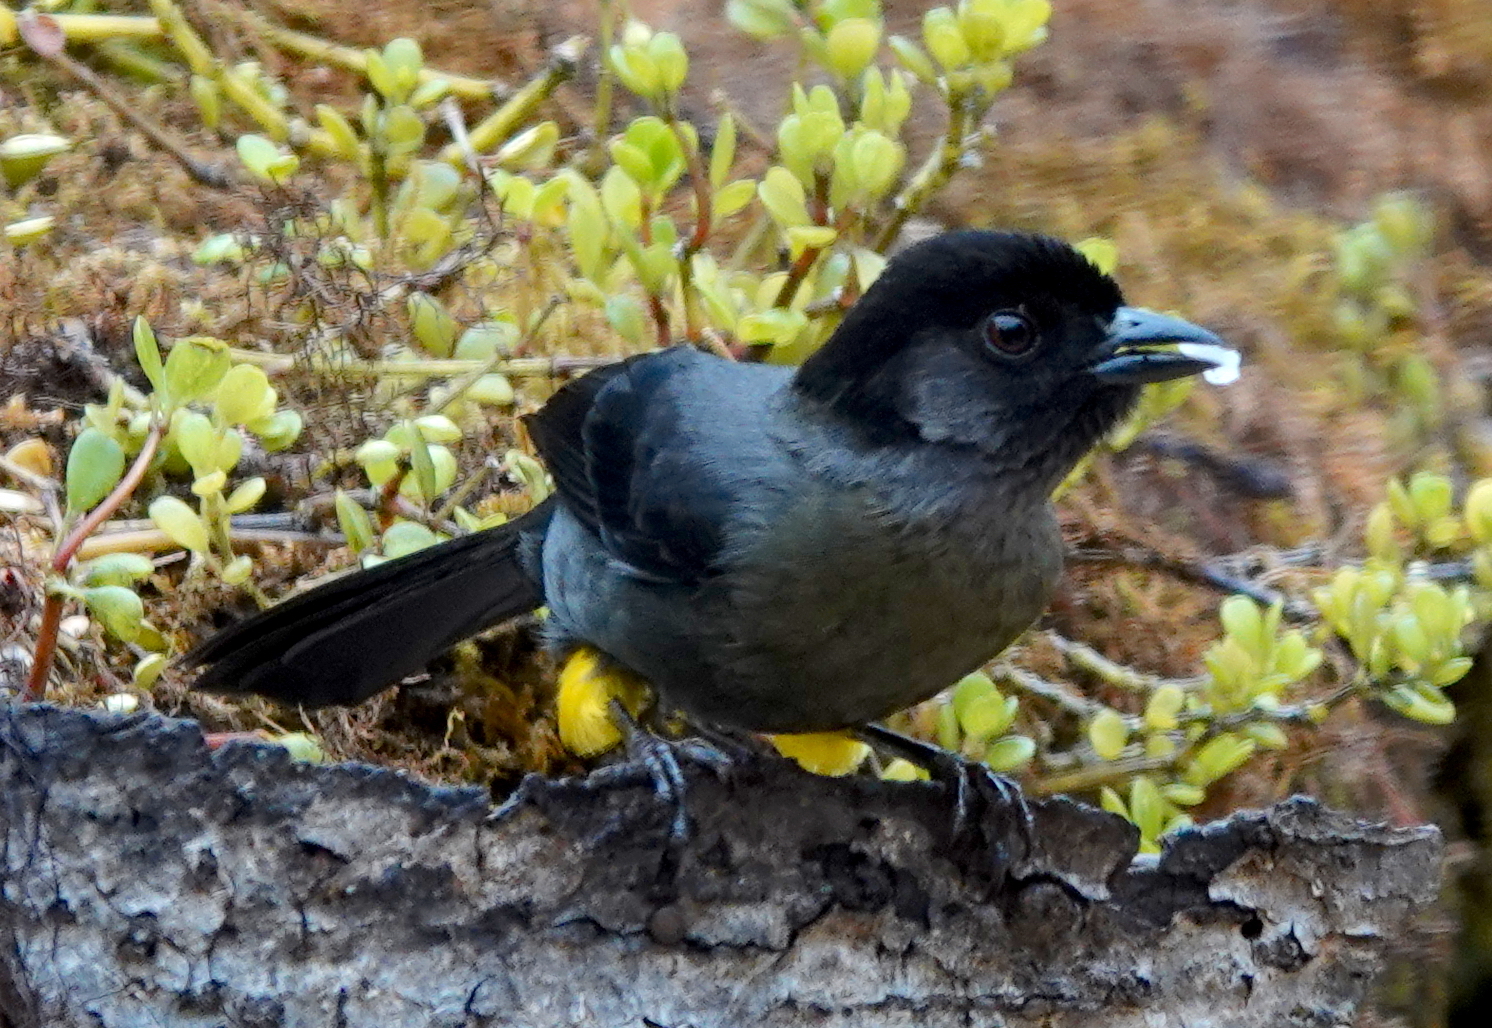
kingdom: Animalia
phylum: Chordata
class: Aves
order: Passeriformes
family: Passerellidae
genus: Atlapetes
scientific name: Atlapetes tibialis
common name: Yellow-thighed brushfinch
